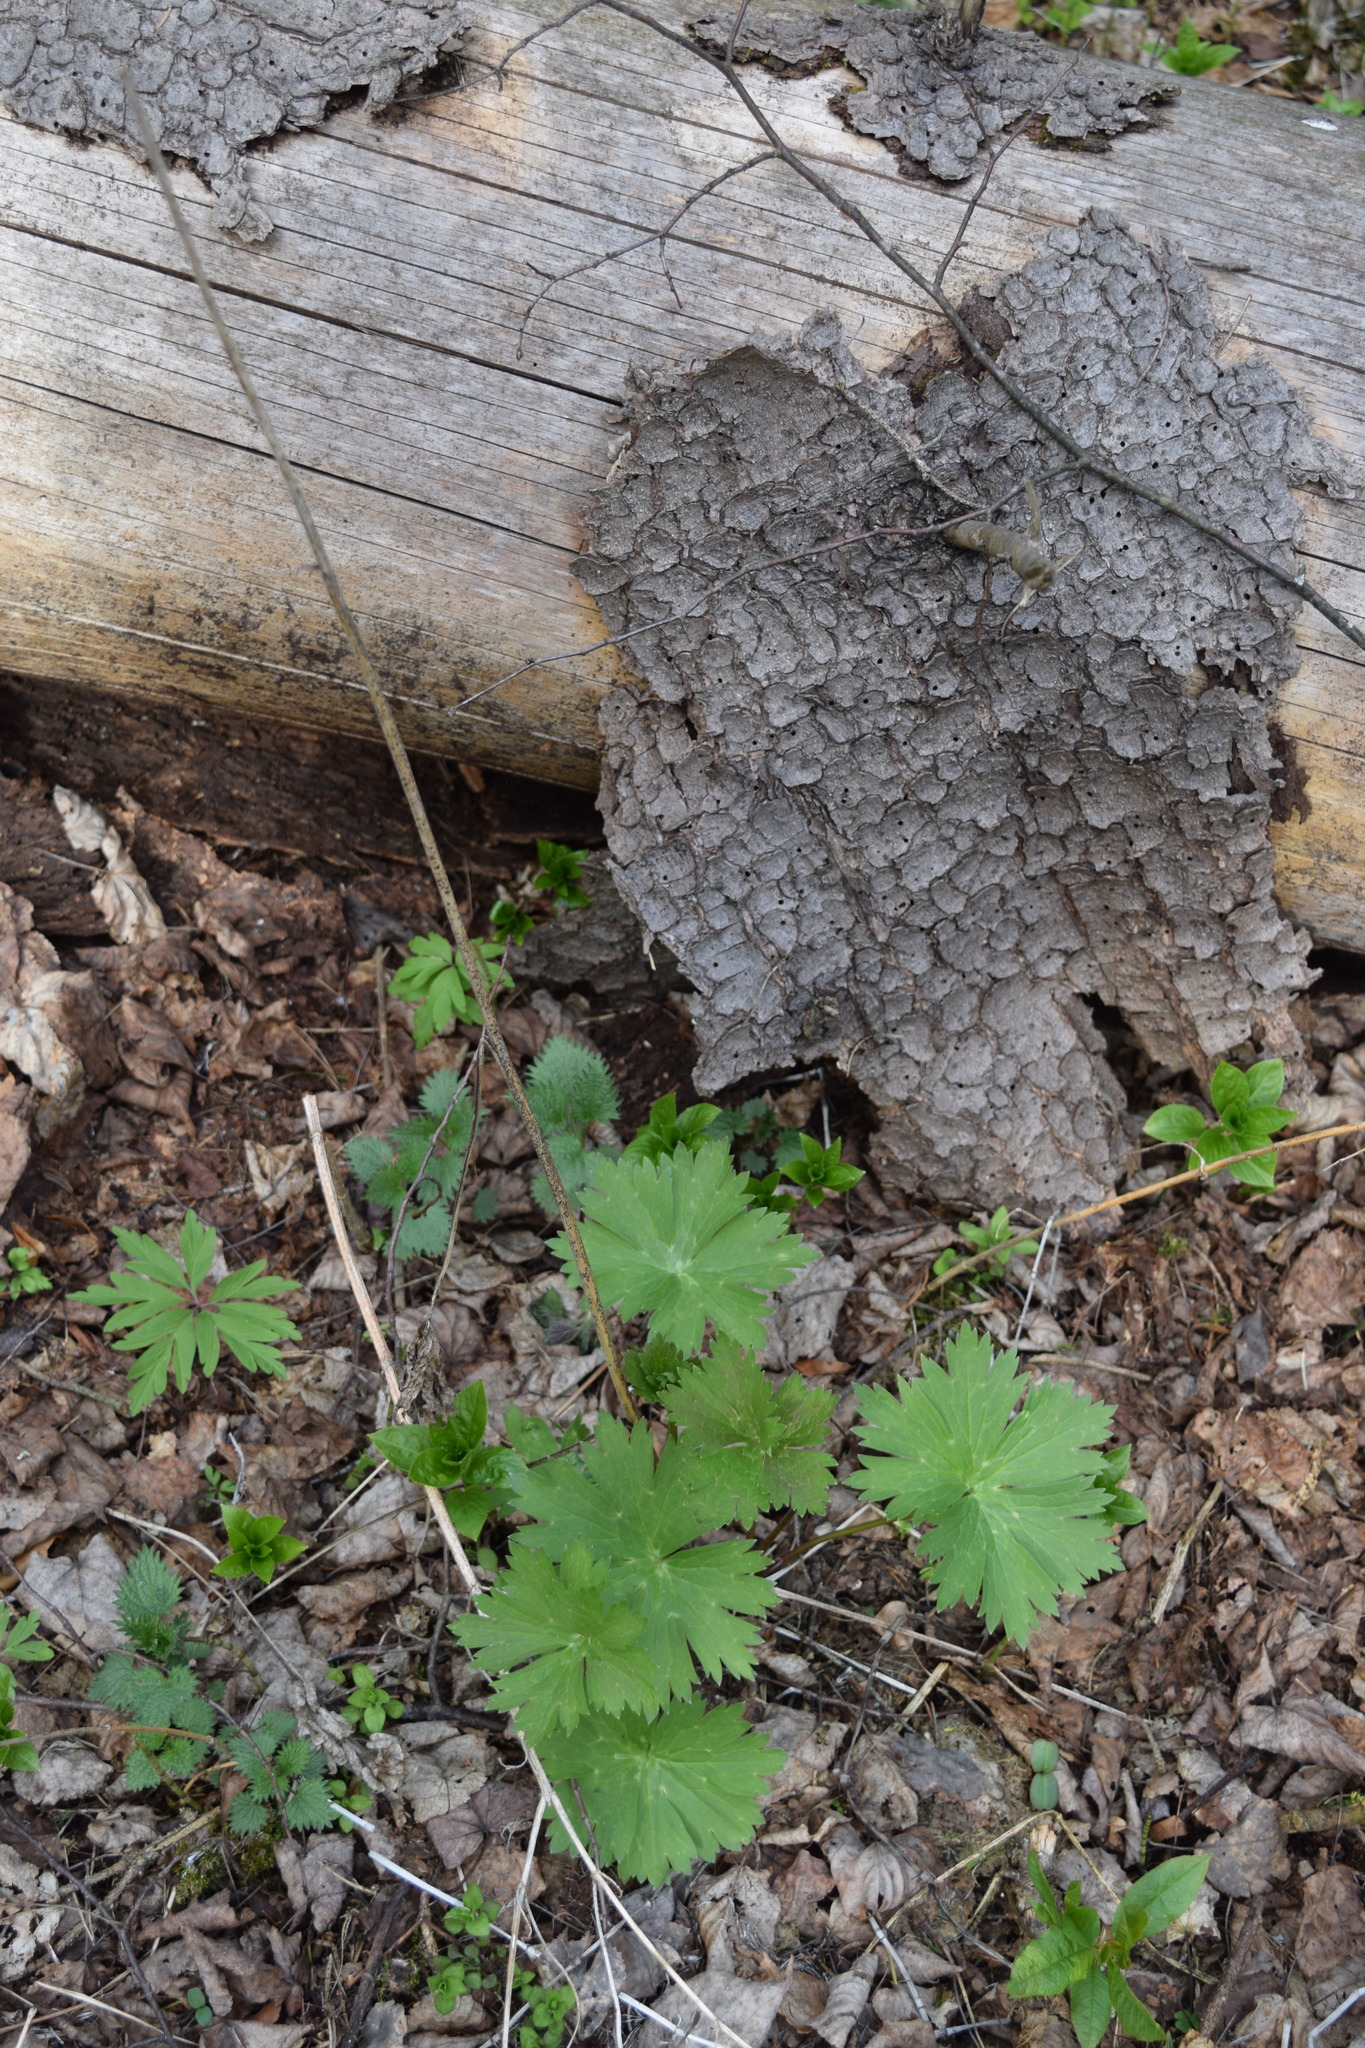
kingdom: Plantae
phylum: Tracheophyta
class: Magnoliopsida
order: Ranunculales
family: Ranunculaceae
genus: Aconitum
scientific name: Aconitum lasiostomum
